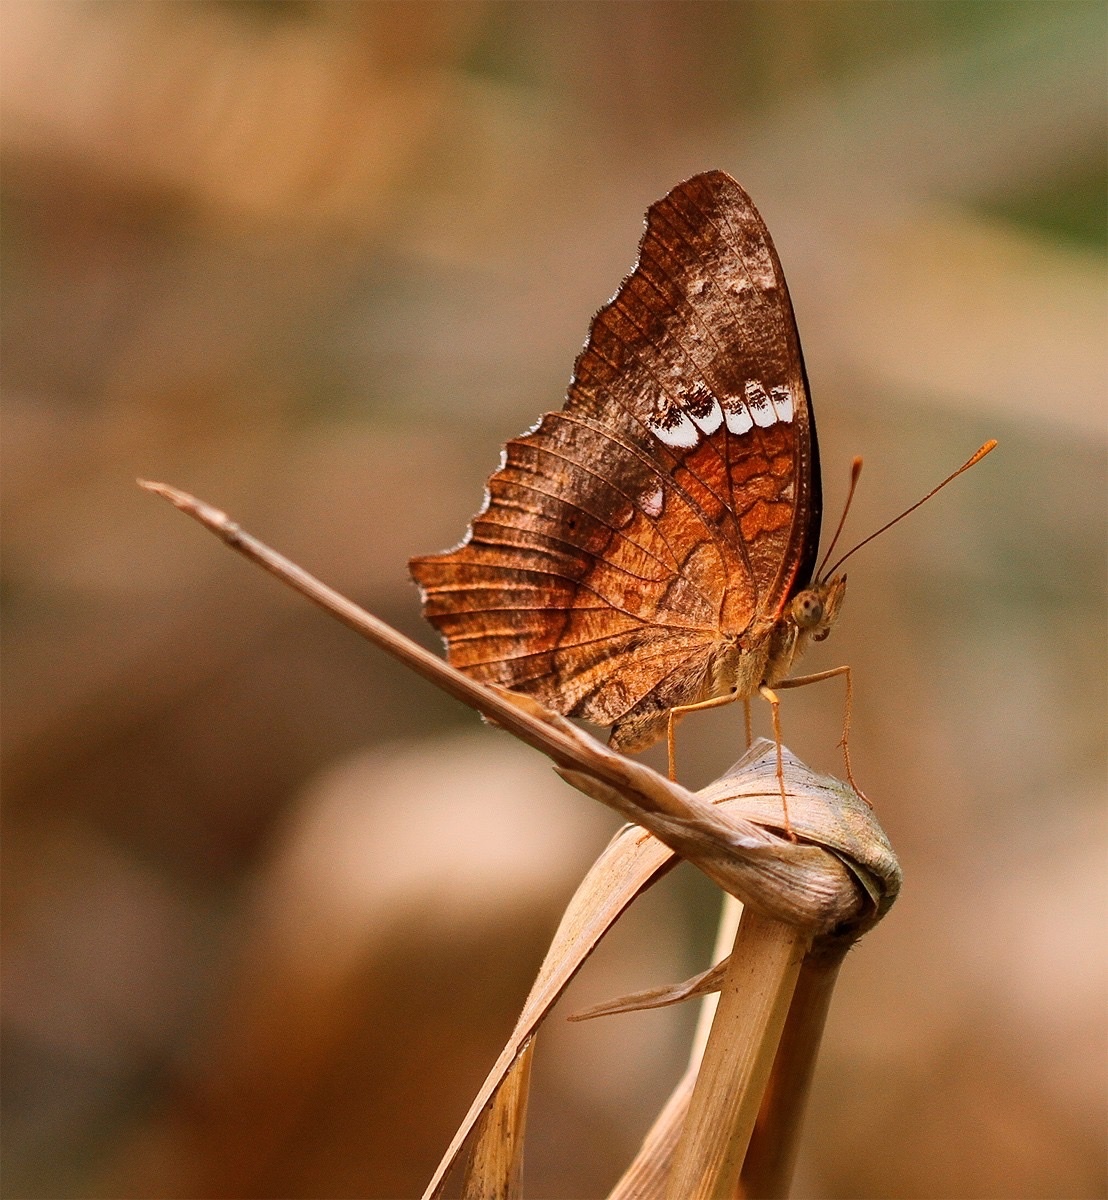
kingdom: Animalia
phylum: Arthropoda
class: Insecta
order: Lepidoptera
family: Nymphalidae
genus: Anartia
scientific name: Anartia amathea
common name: Red peacock
